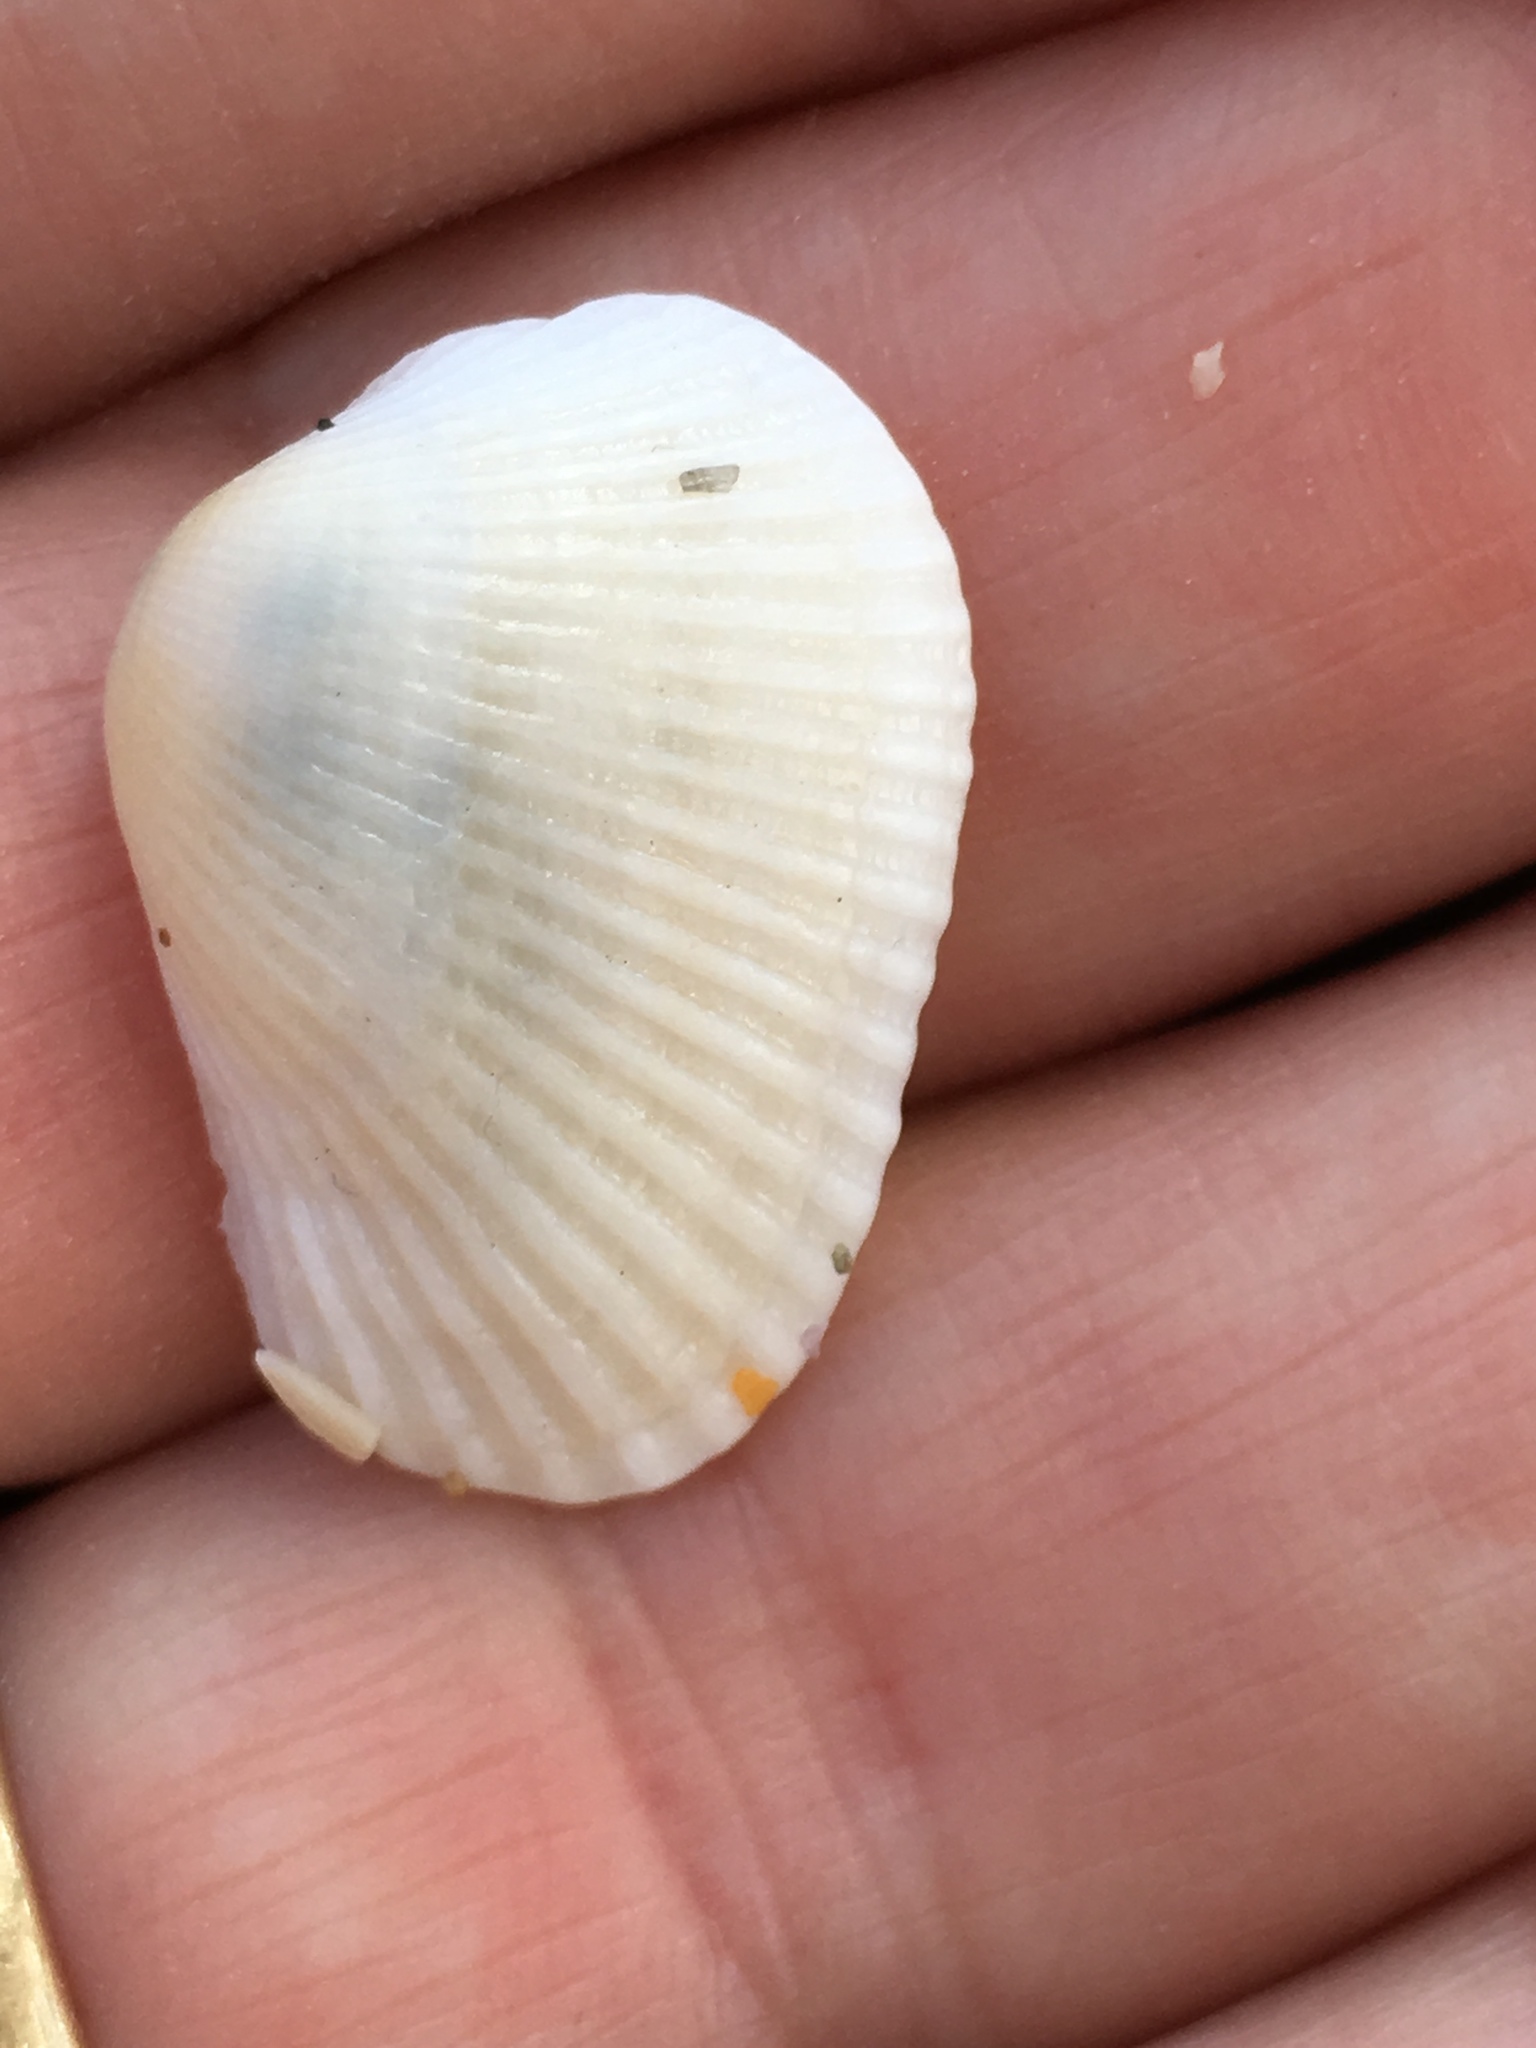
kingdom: Animalia
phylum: Mollusca
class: Bivalvia
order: Arcida
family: Arcidae
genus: Anadara
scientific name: Anadara transversa
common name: Transverse ark
